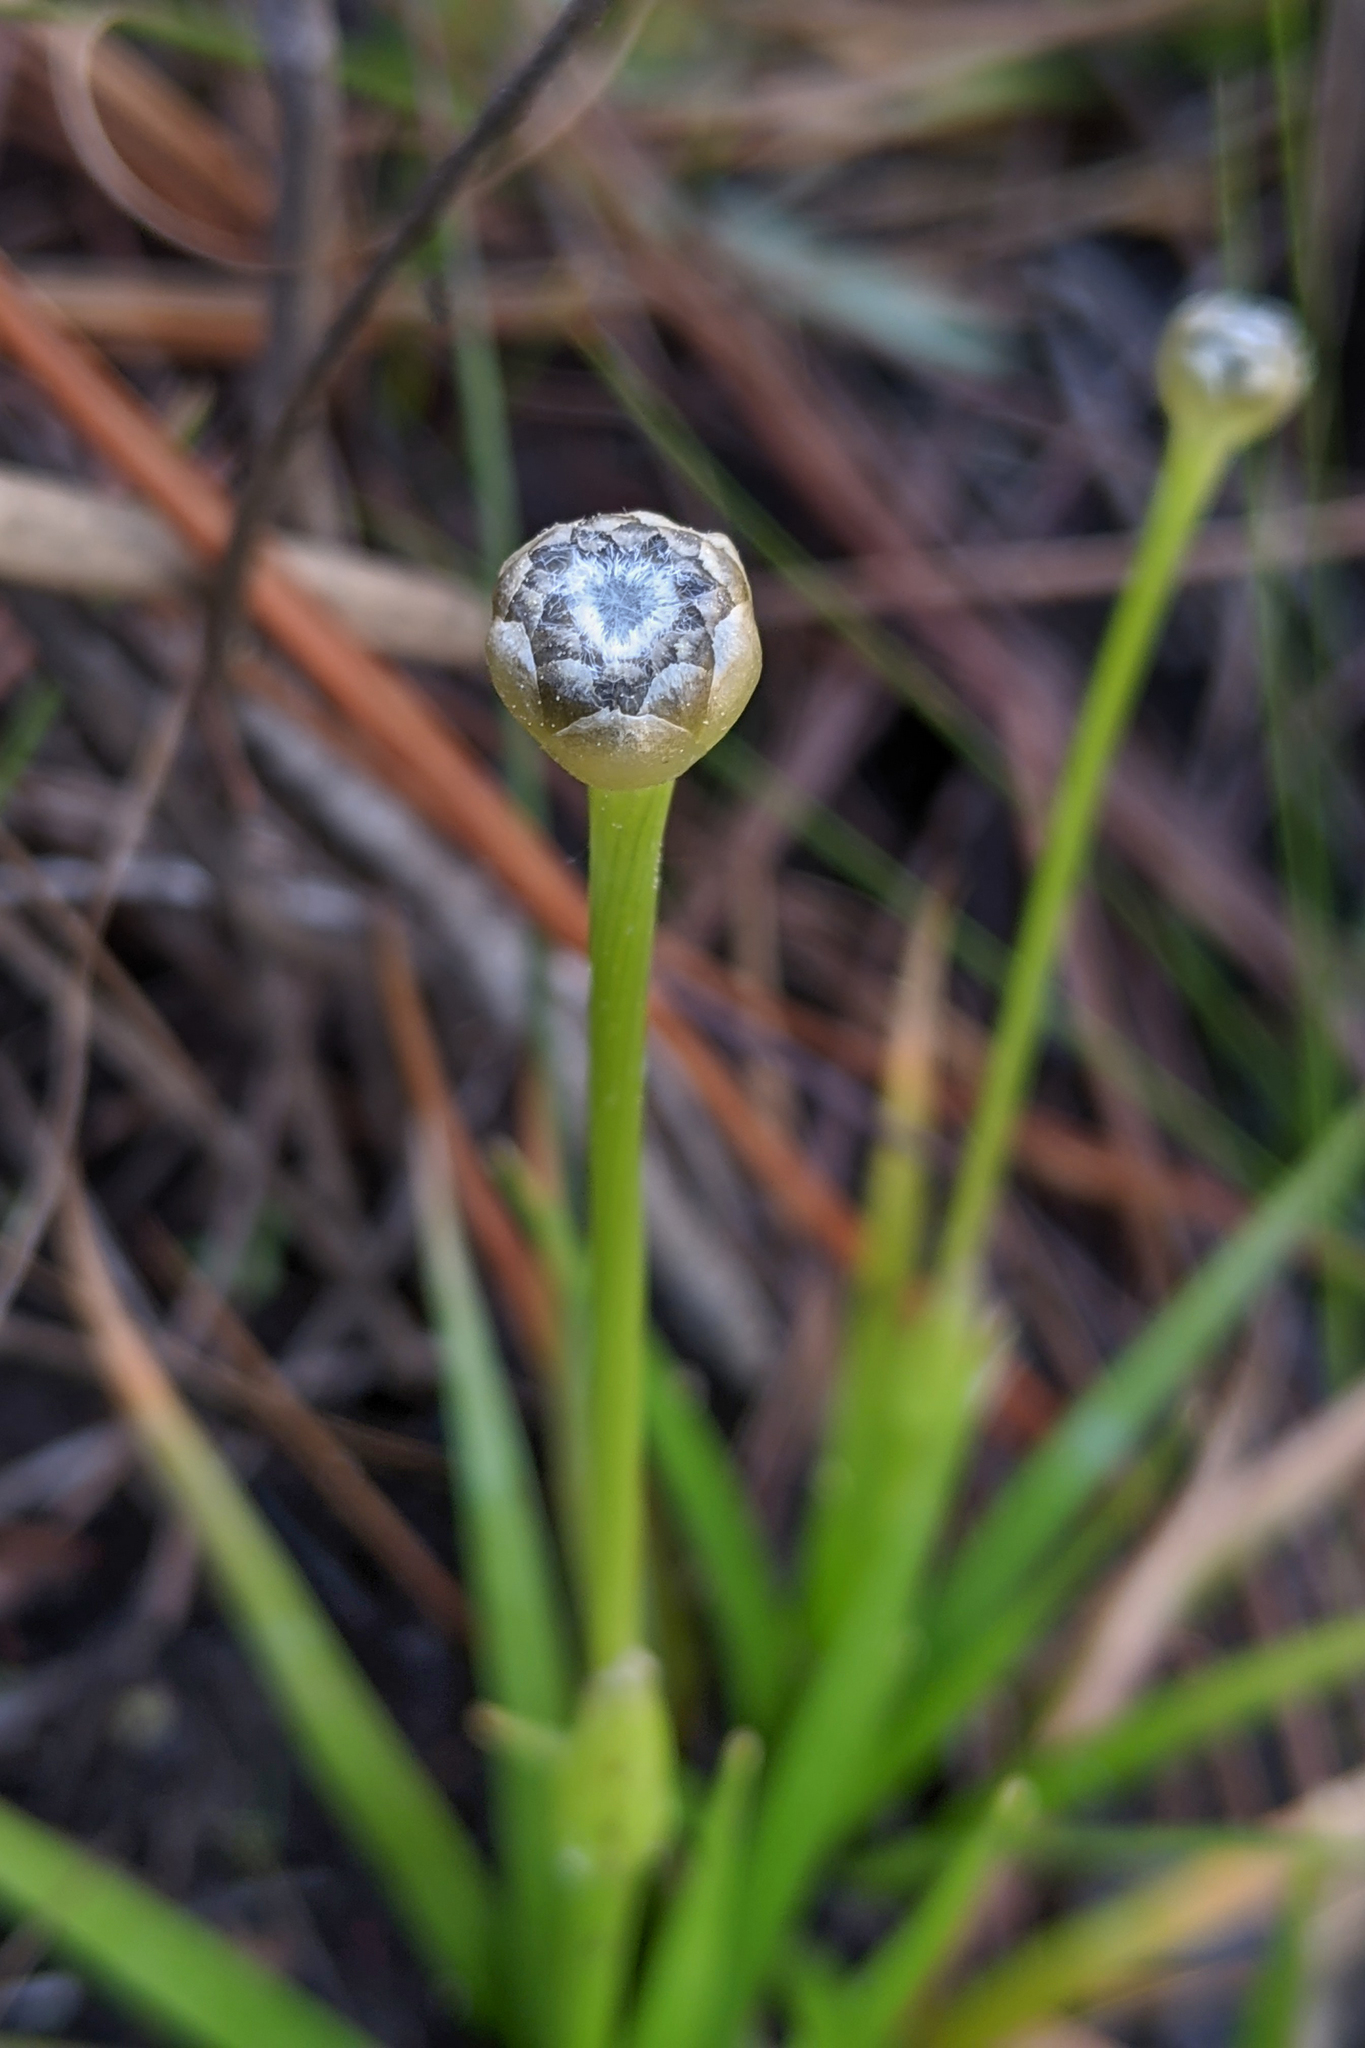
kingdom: Plantae
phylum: Tracheophyta
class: Liliopsida
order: Poales
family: Eriocaulaceae
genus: Eriocaulon
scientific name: Eriocaulon compressum
